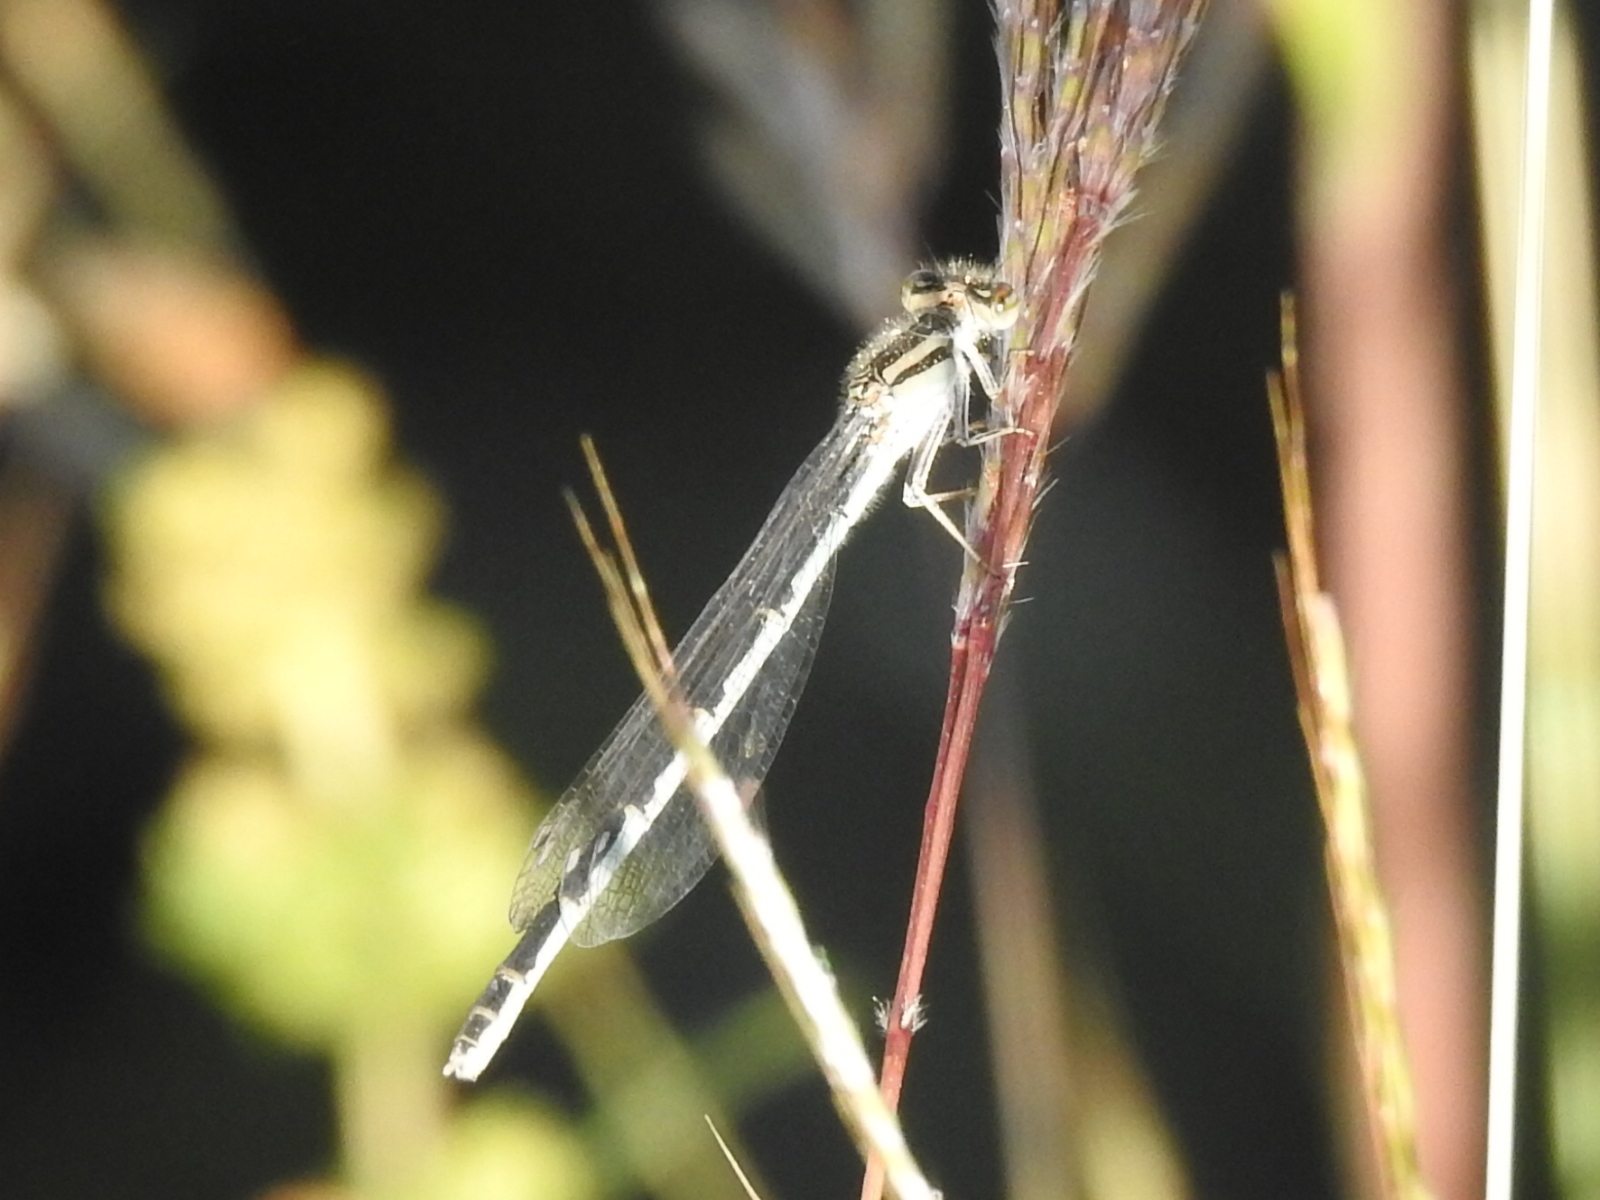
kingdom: Animalia
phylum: Arthropoda
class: Insecta
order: Odonata
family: Coenagrionidae
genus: Enallagma
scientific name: Enallagma civile
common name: Damselfly
